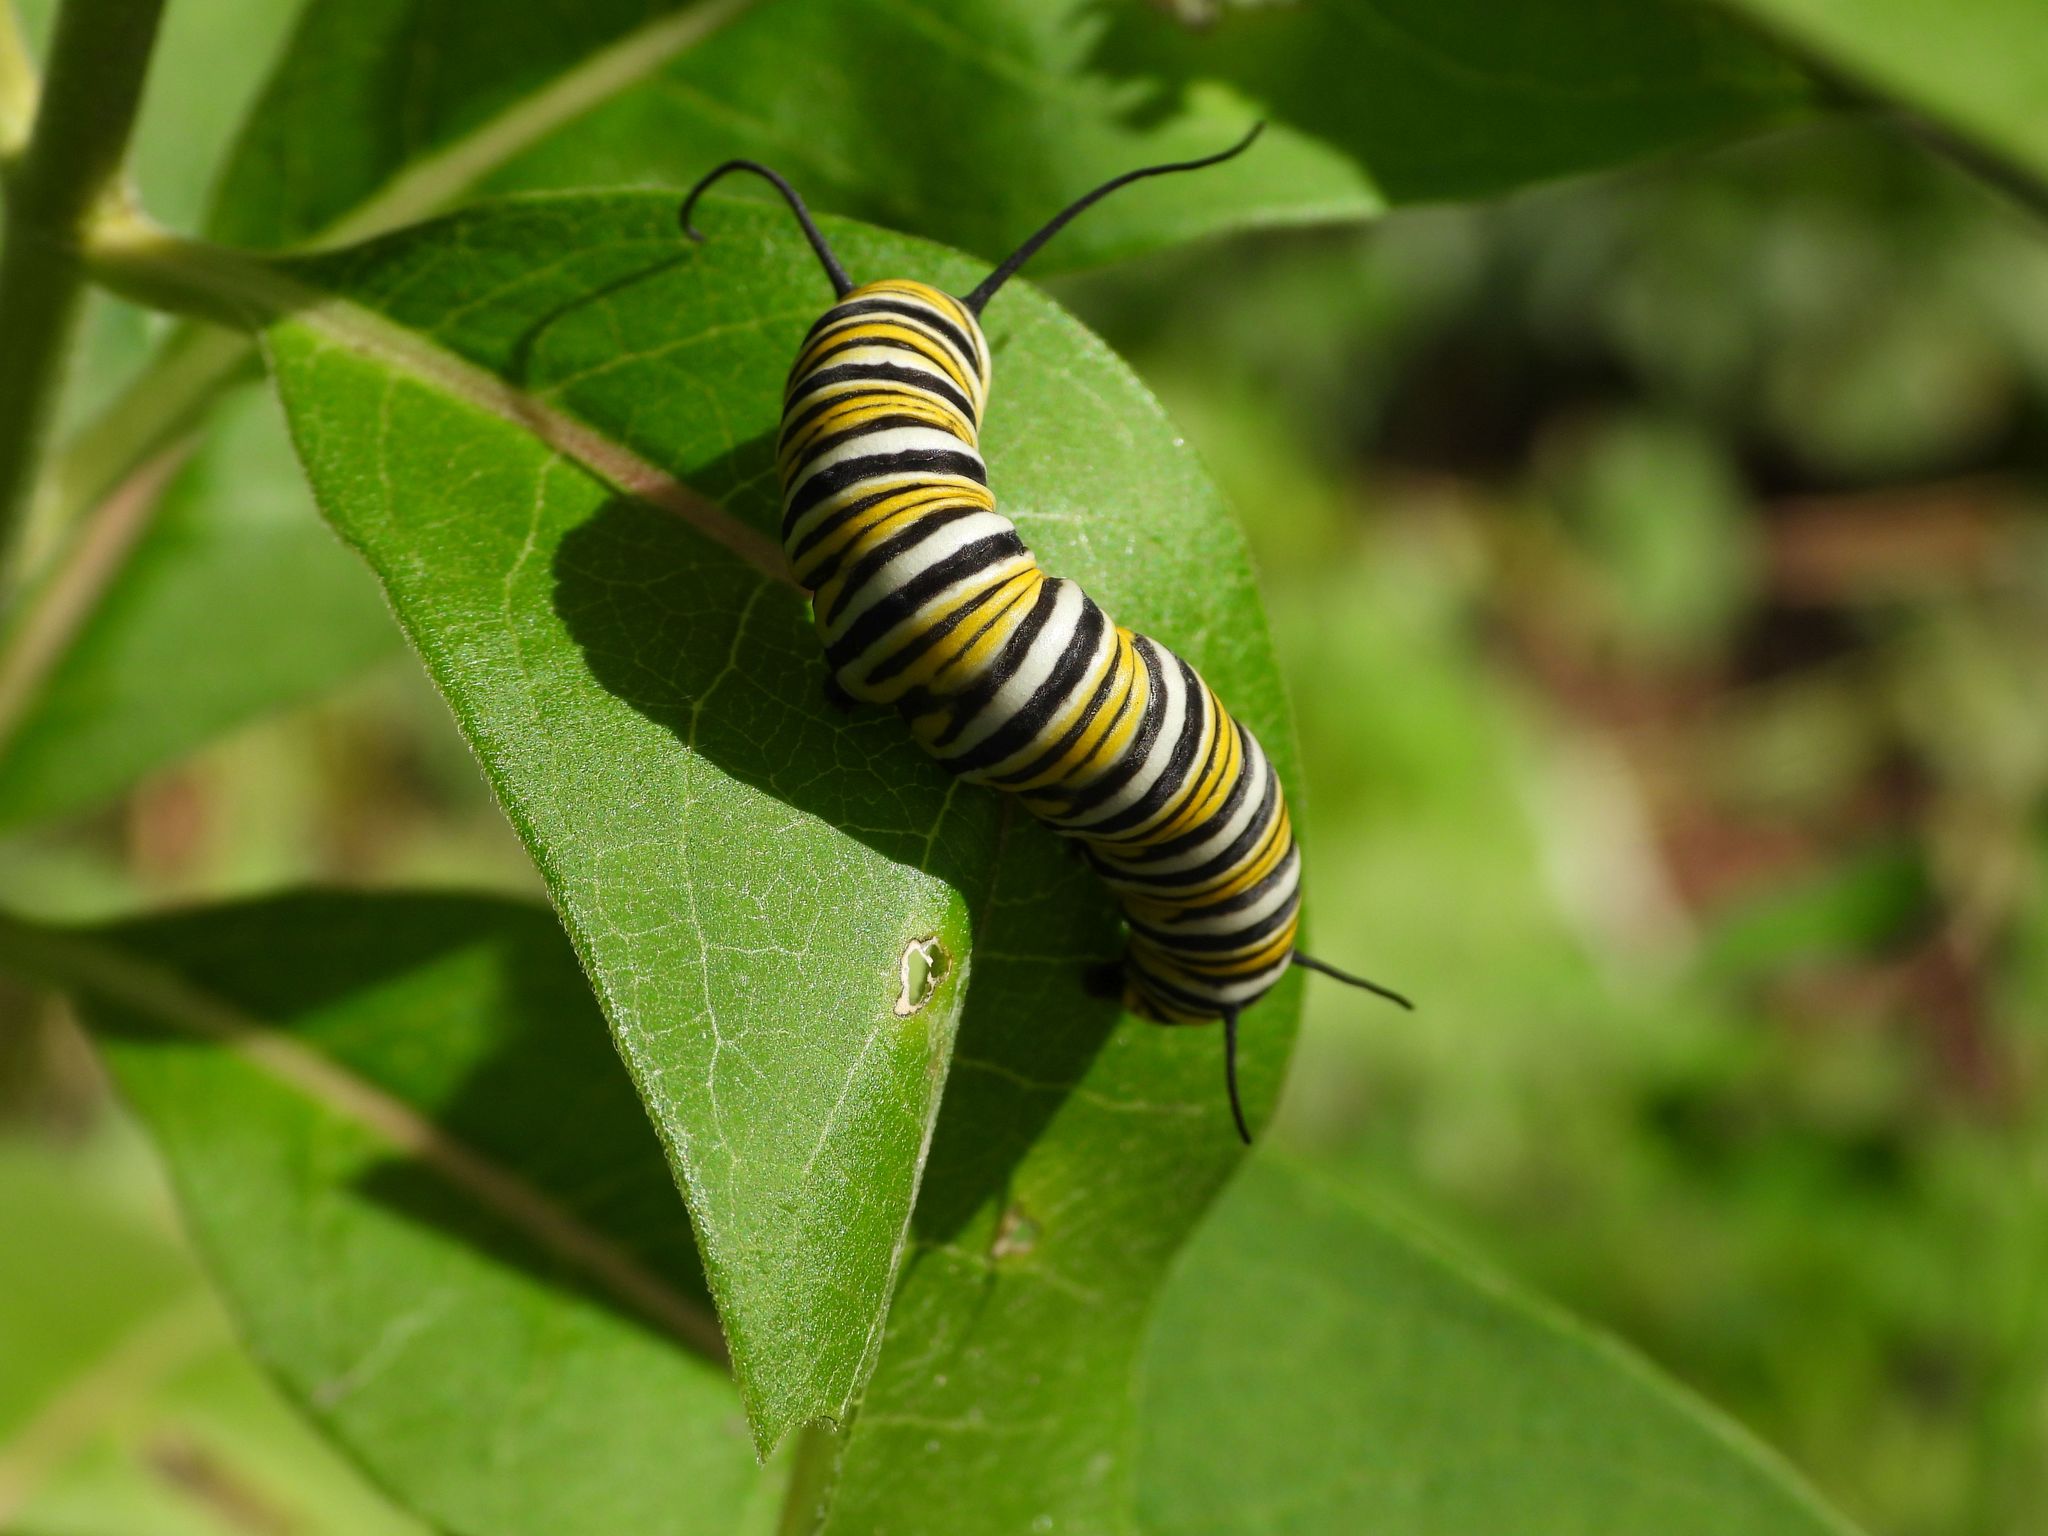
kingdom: Animalia
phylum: Arthropoda
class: Insecta
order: Lepidoptera
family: Nymphalidae
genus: Danaus
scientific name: Danaus plexippus
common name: Monarch
